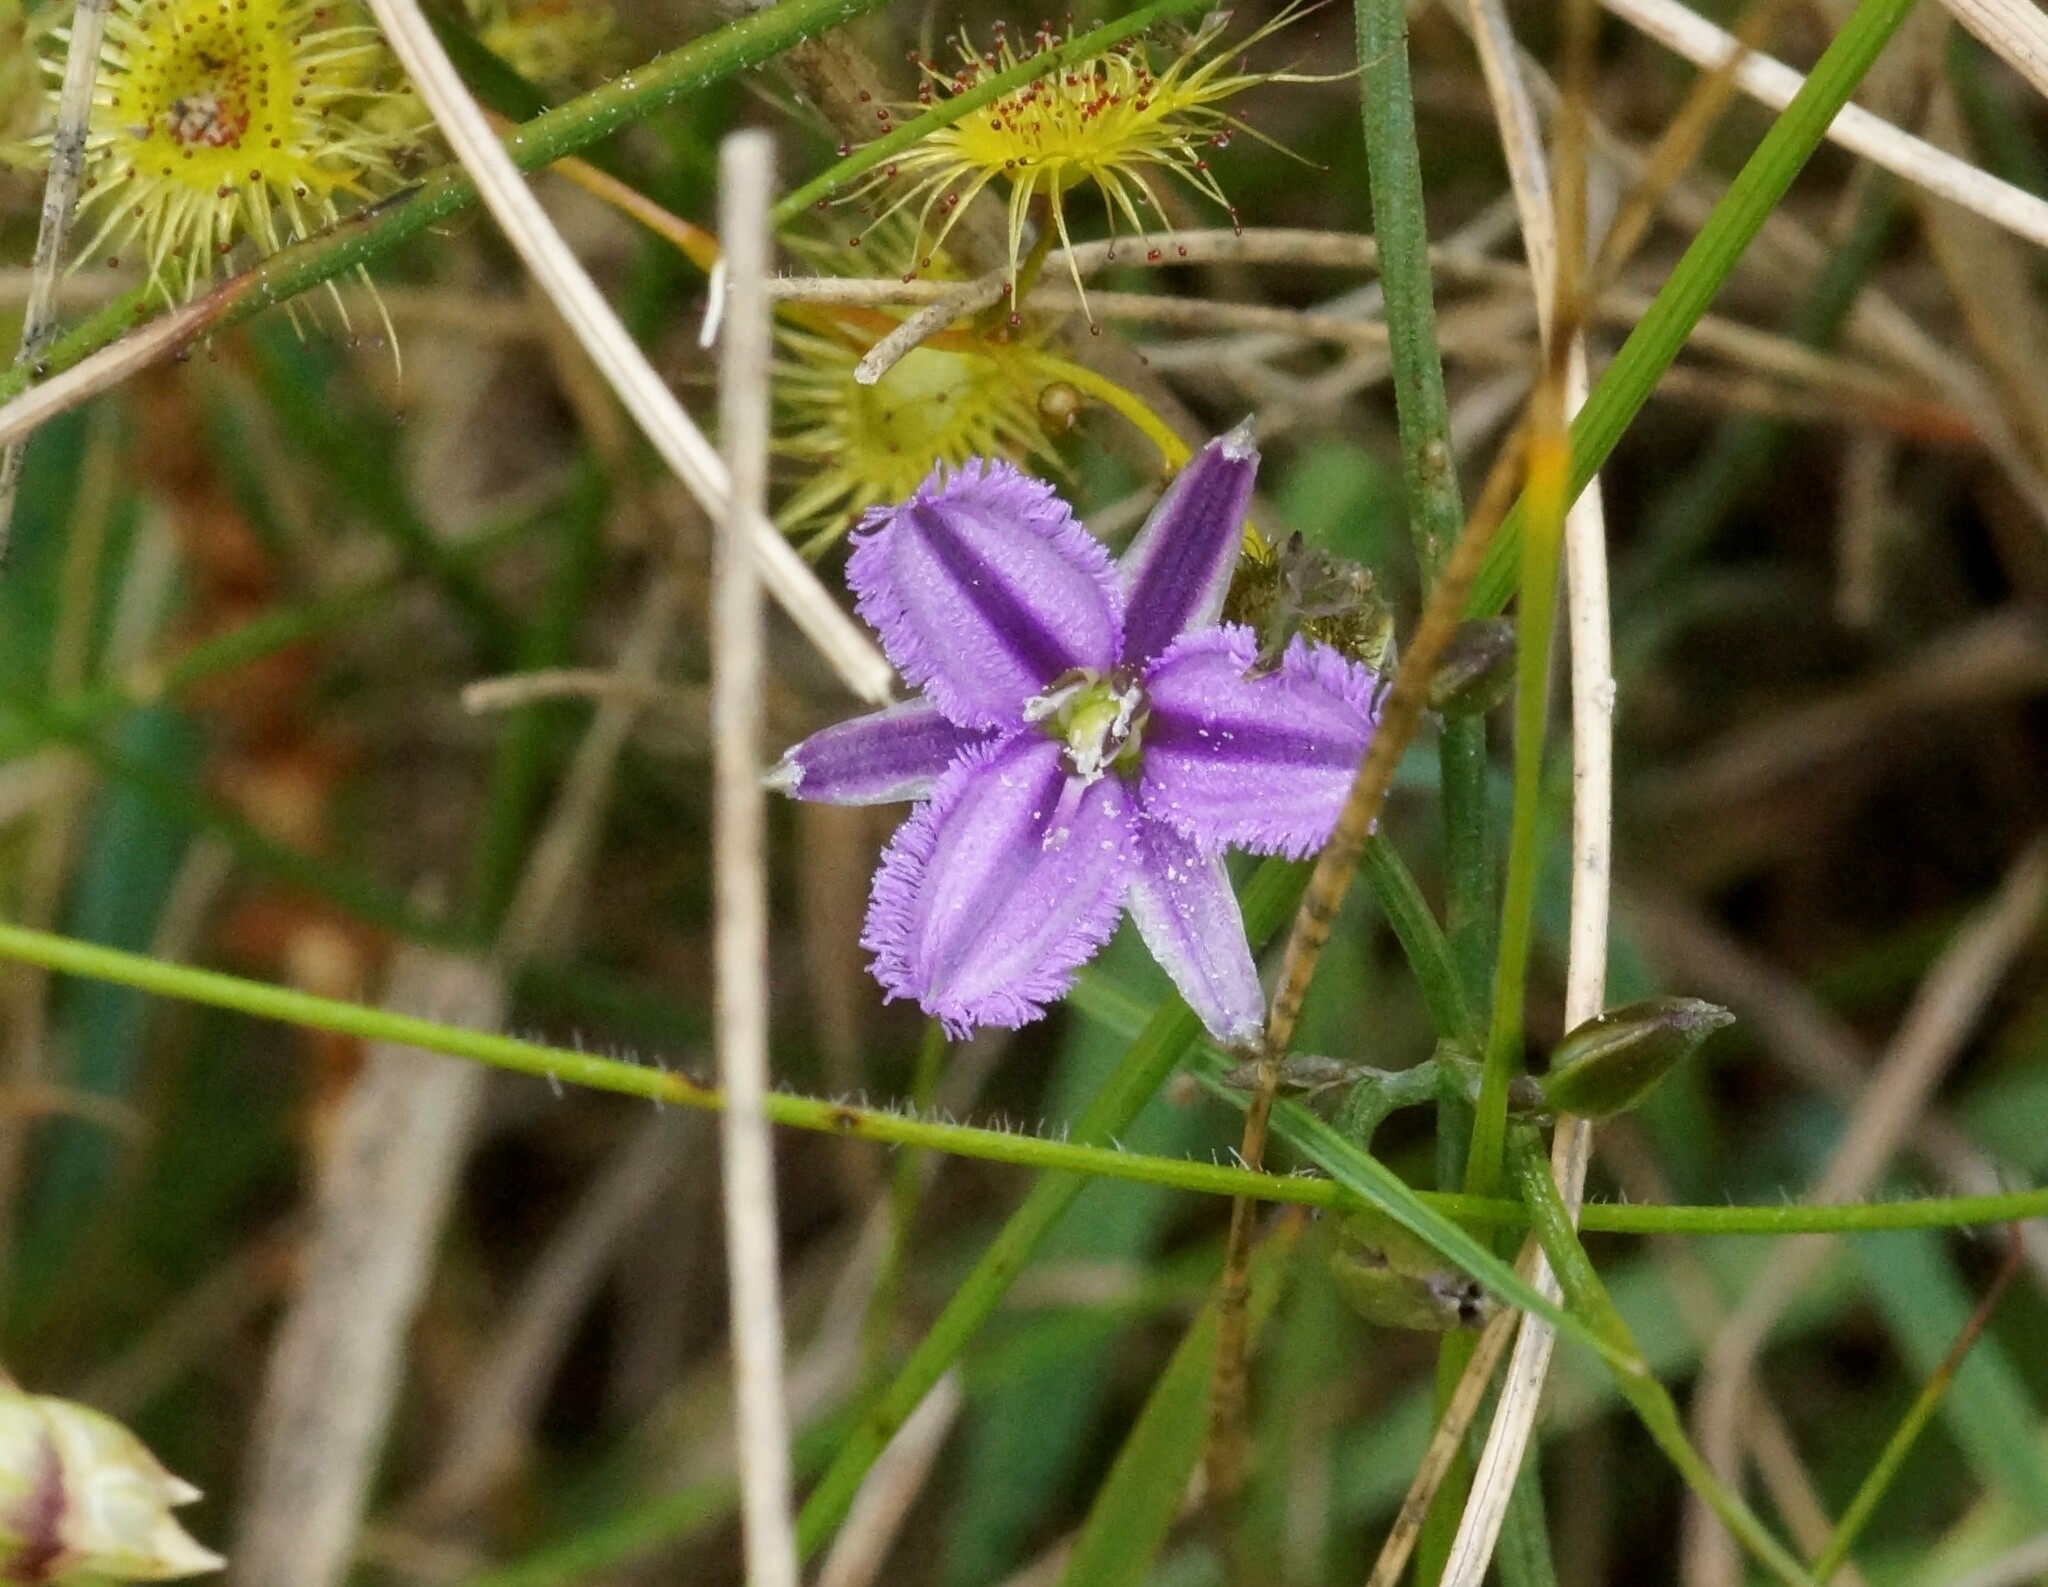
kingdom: Plantae
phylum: Tracheophyta
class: Liliopsida
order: Asparagales
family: Asparagaceae
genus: Thysanotus
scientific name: Thysanotus patersonii
